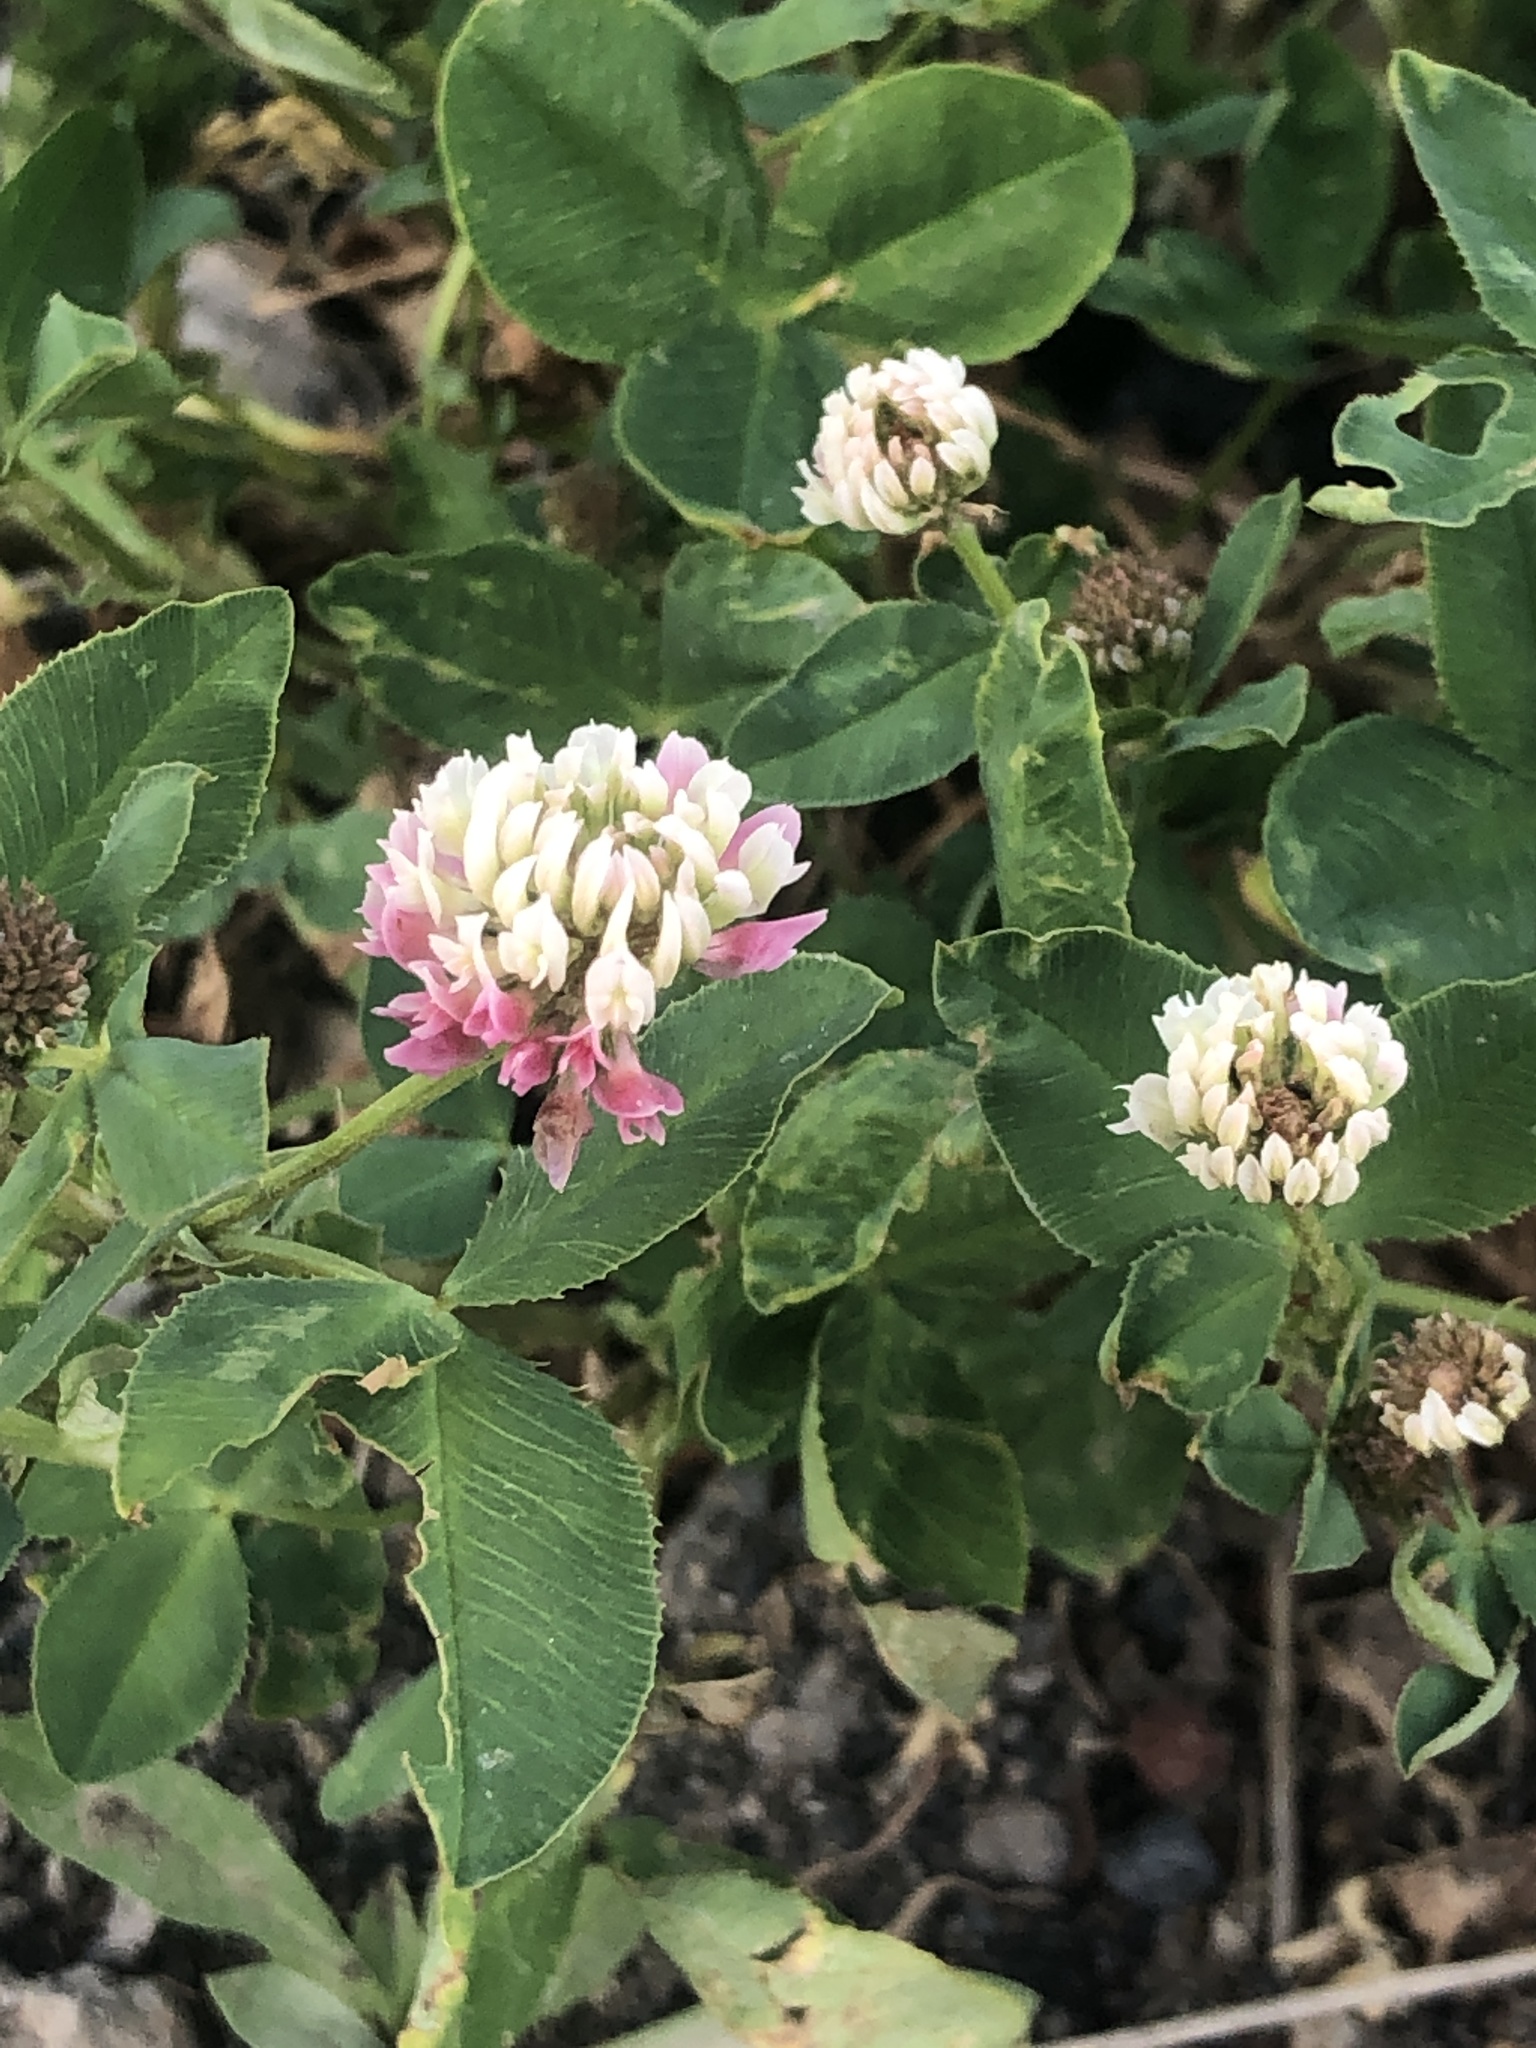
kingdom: Plantae
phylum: Tracheophyta
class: Magnoliopsida
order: Fabales
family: Fabaceae
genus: Trifolium
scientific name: Trifolium hybridum
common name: Alsike clover
